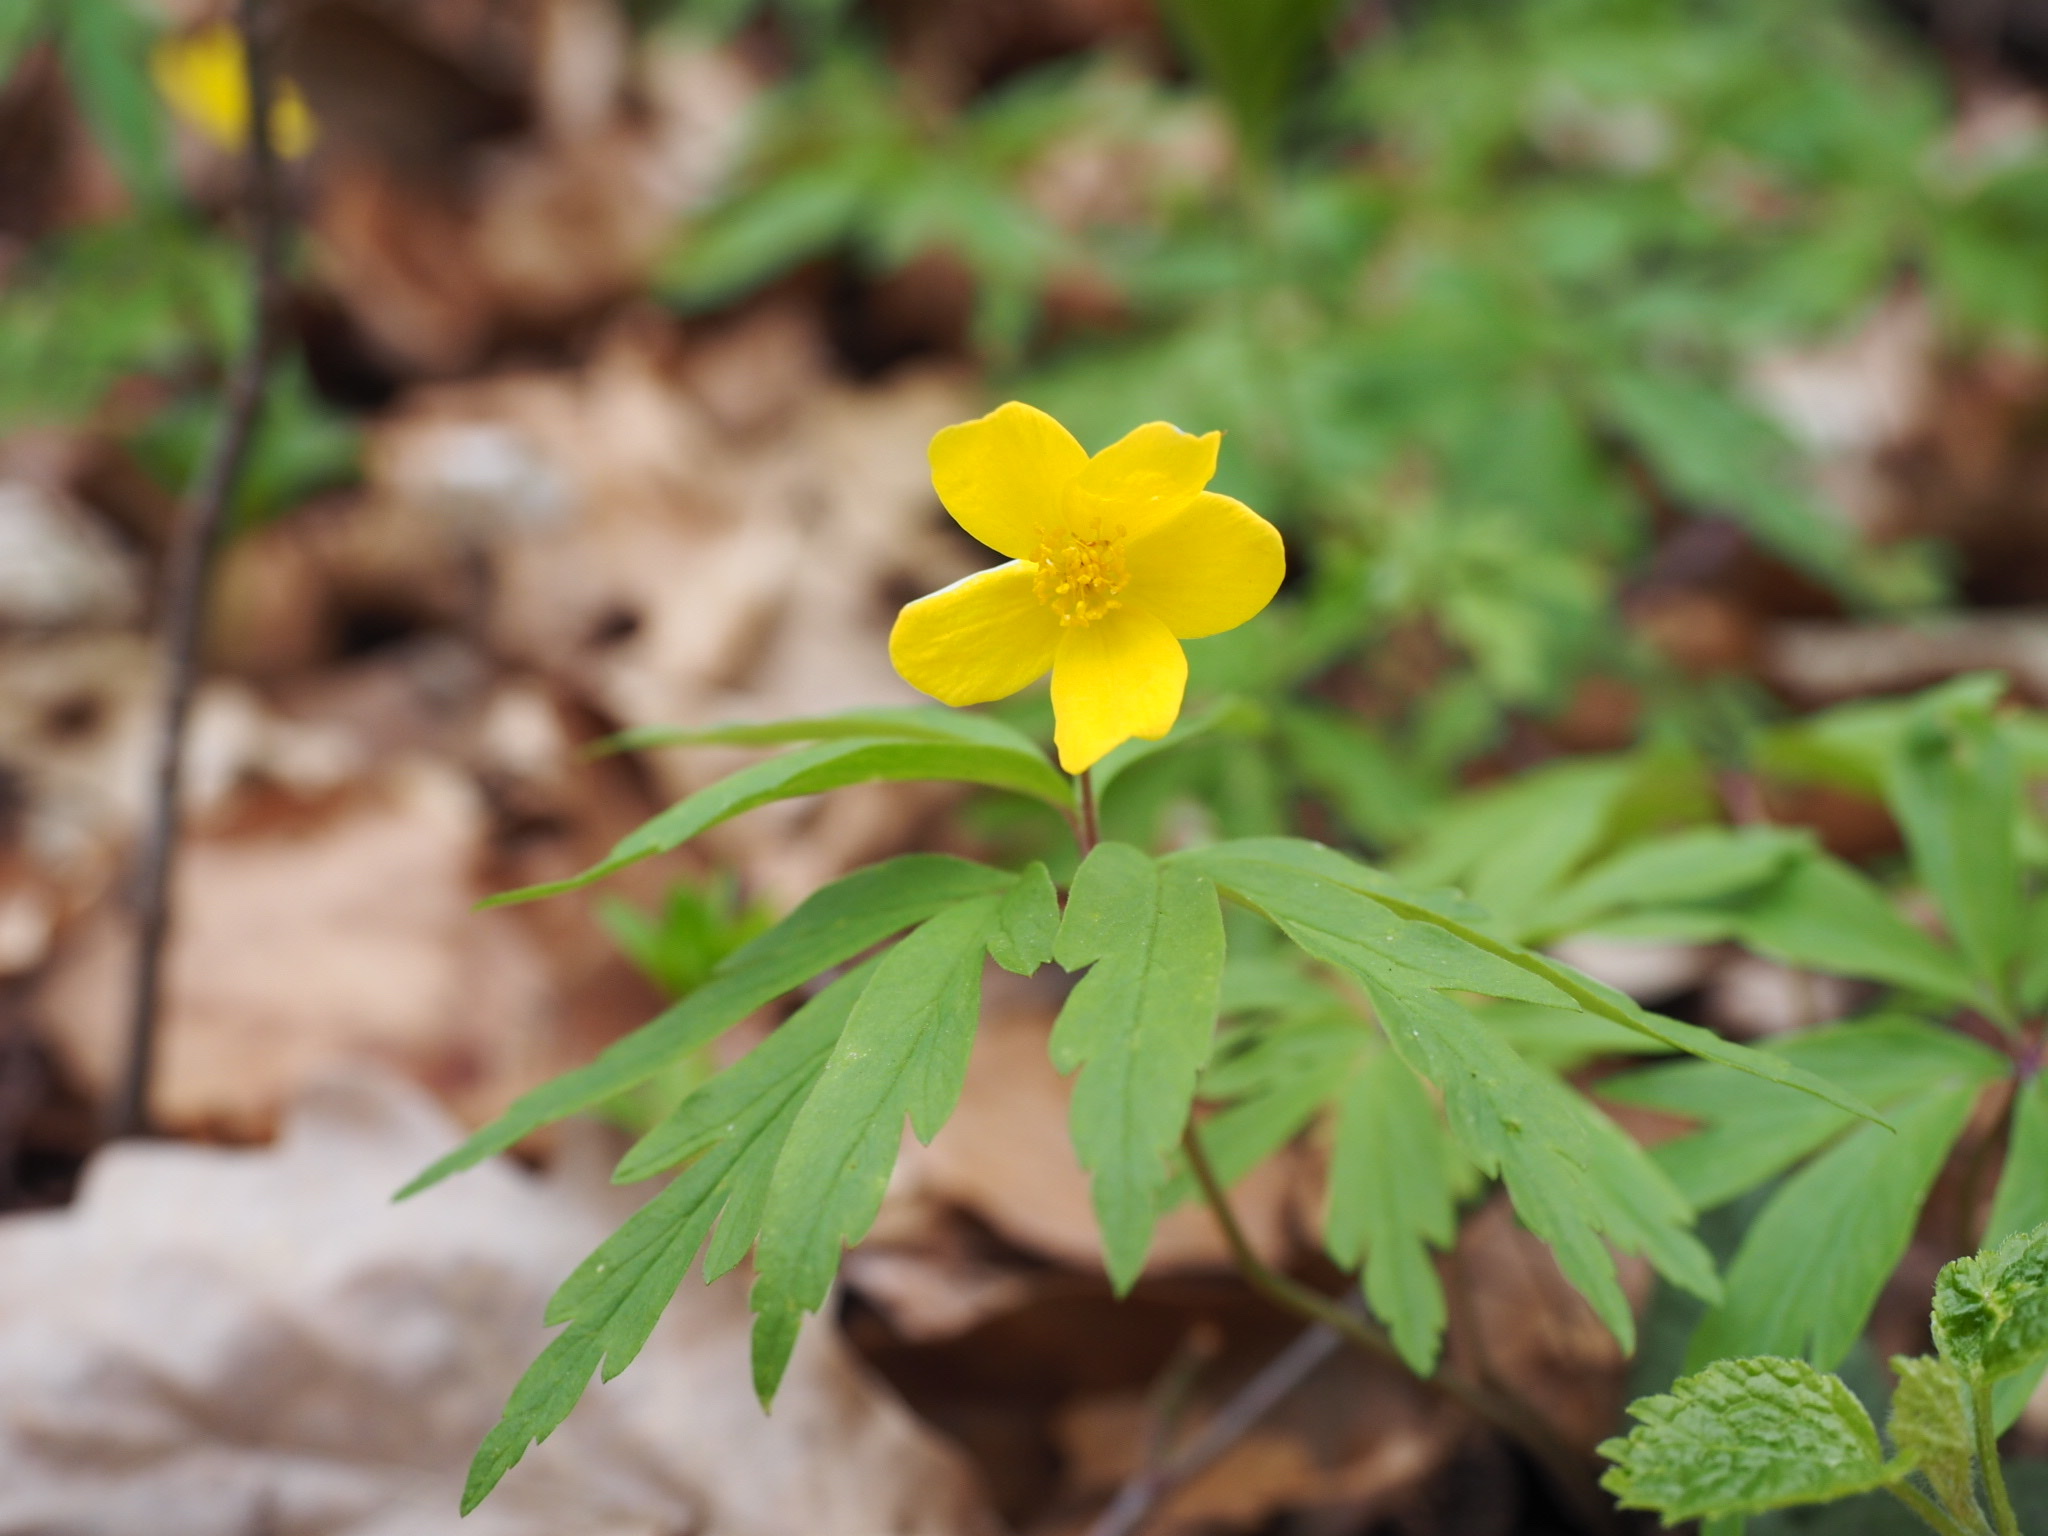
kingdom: Plantae
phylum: Tracheophyta
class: Magnoliopsida
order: Ranunculales
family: Ranunculaceae
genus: Anemone
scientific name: Anemone ranunculoides
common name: Yellow anemone
